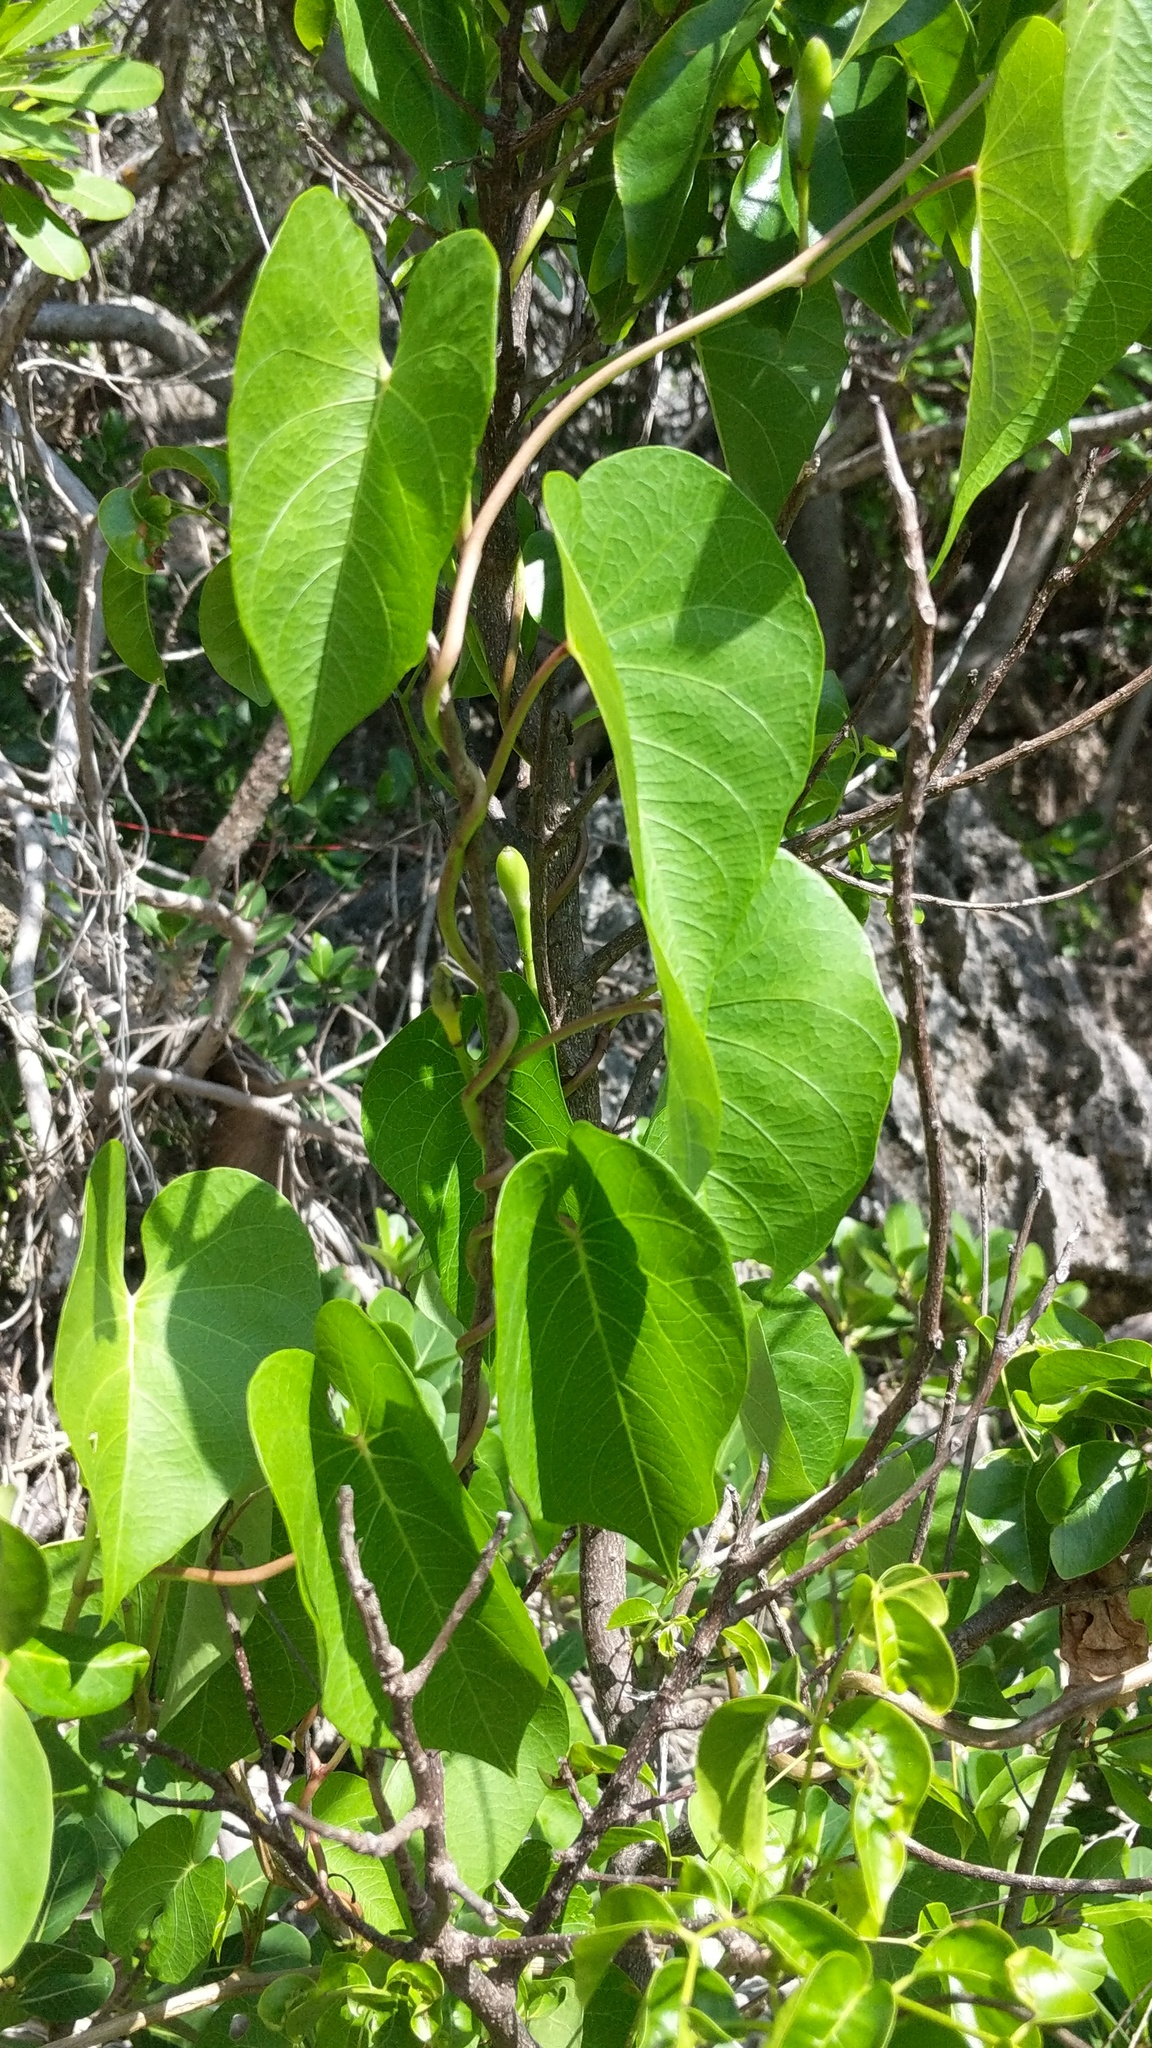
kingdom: Plantae
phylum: Tracheophyta
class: Magnoliopsida
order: Solanales
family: Convolvulaceae
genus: Ipomoea
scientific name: Ipomoea violacea
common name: Beach moonflower
